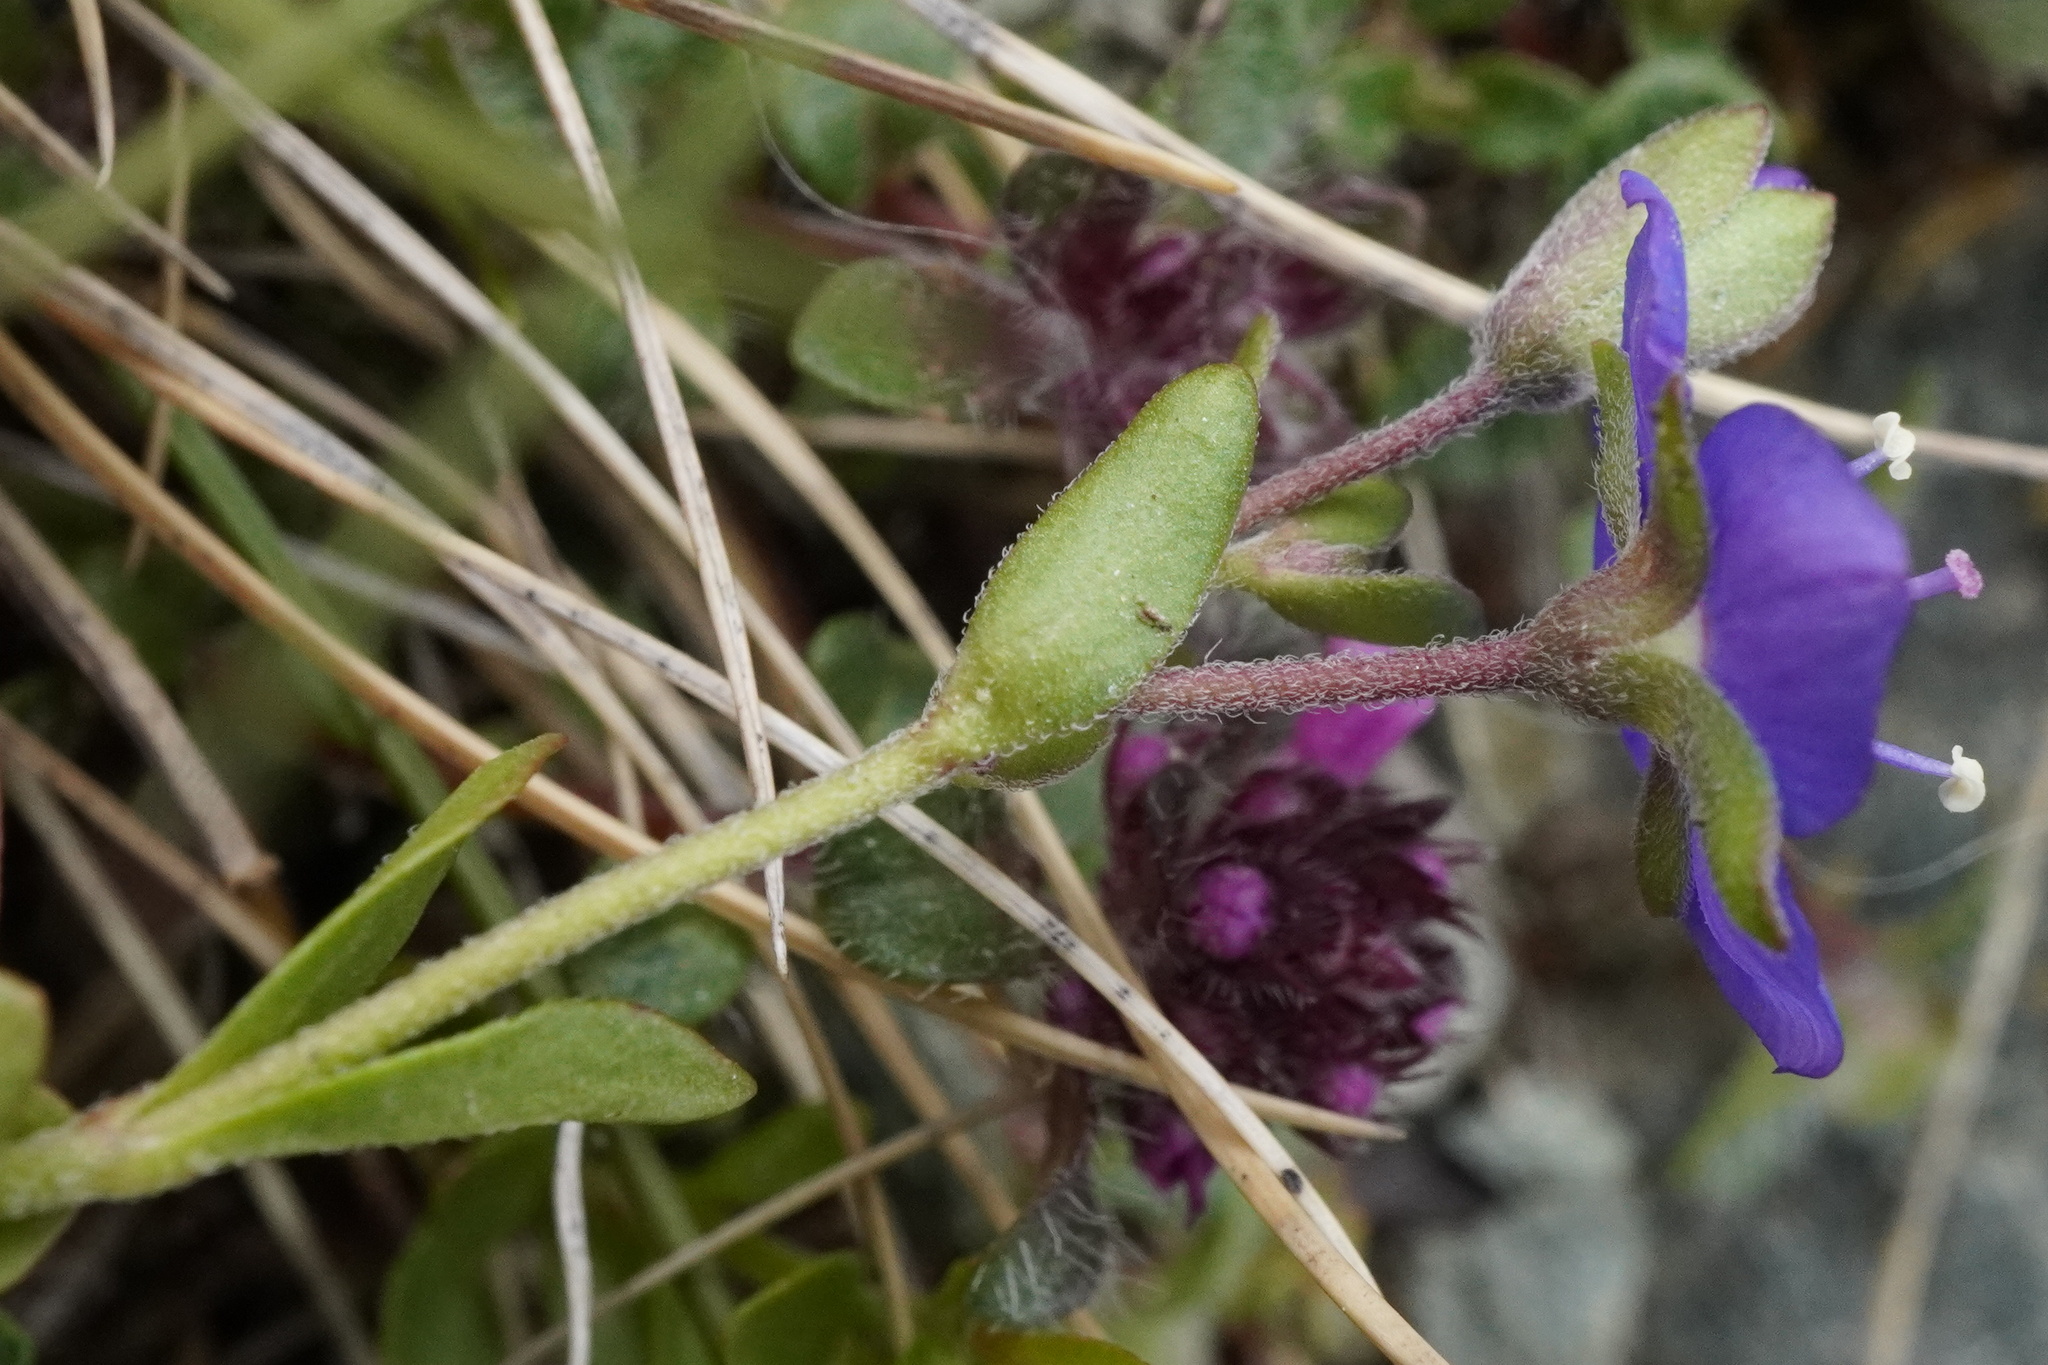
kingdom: Plantae
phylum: Tracheophyta
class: Magnoliopsida
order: Lamiales
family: Plantaginaceae
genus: Veronica
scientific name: Veronica fruticans
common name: Rock speedwell
